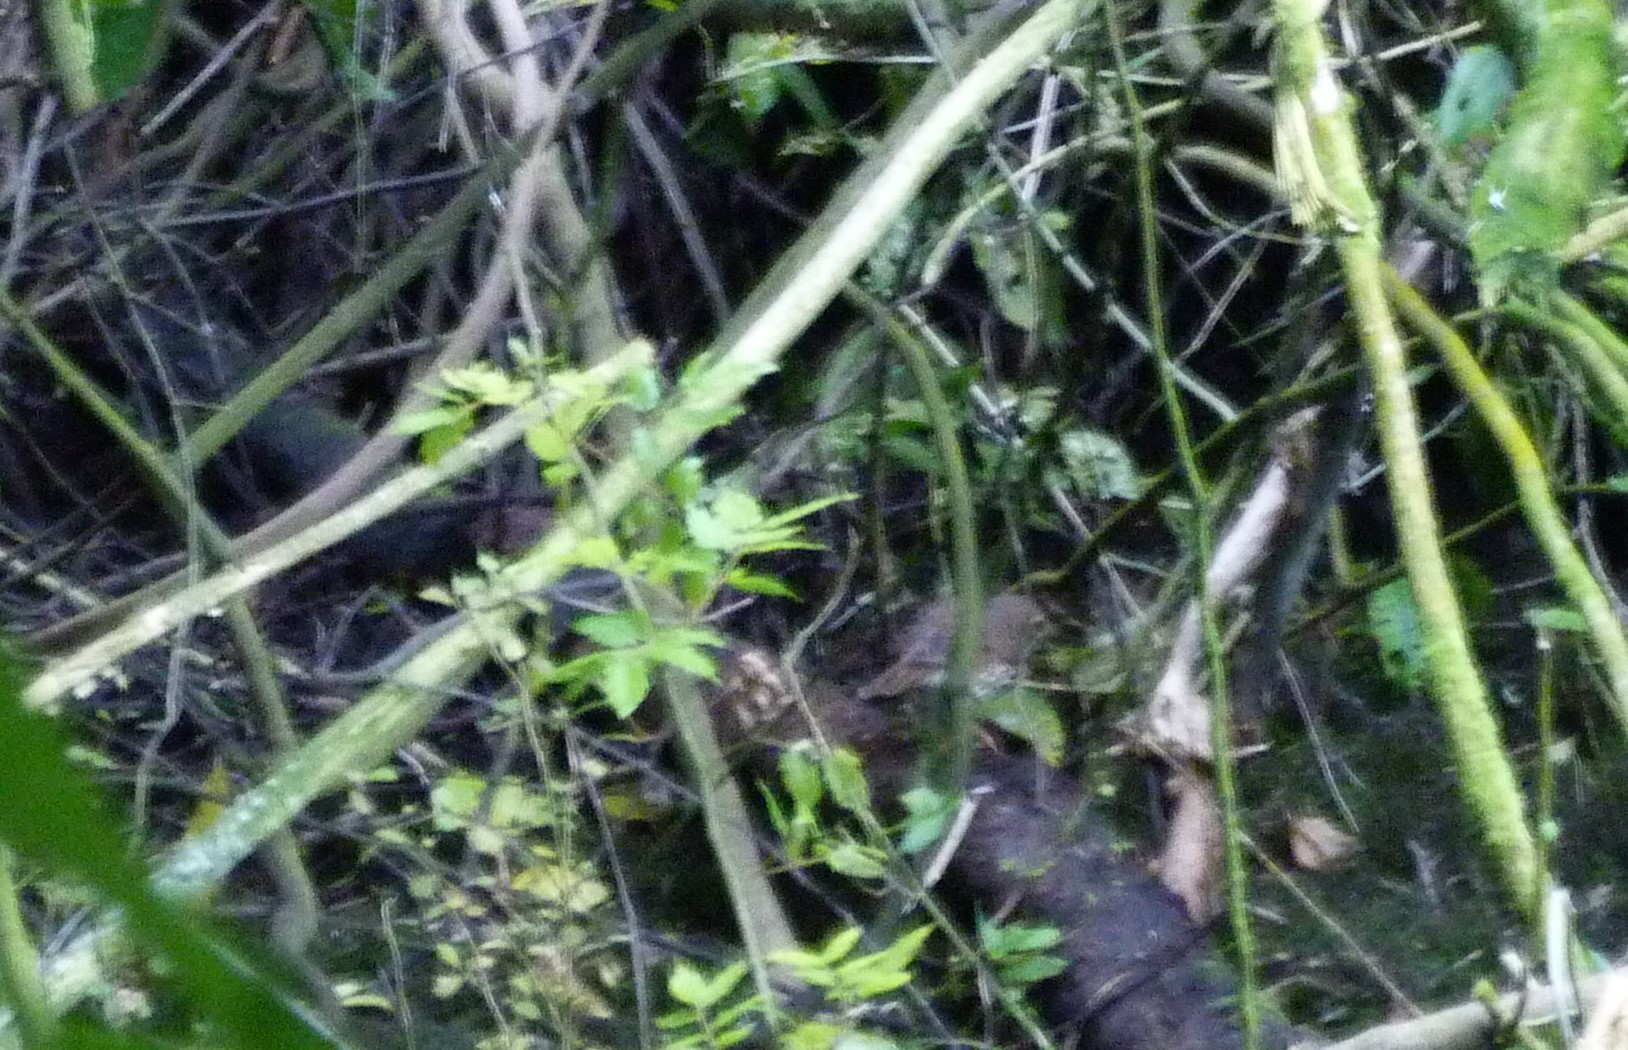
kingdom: Animalia
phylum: Chordata
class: Aves
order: Passeriformes
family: Prunellidae
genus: Prunella
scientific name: Prunella modularis
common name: Dunnock
